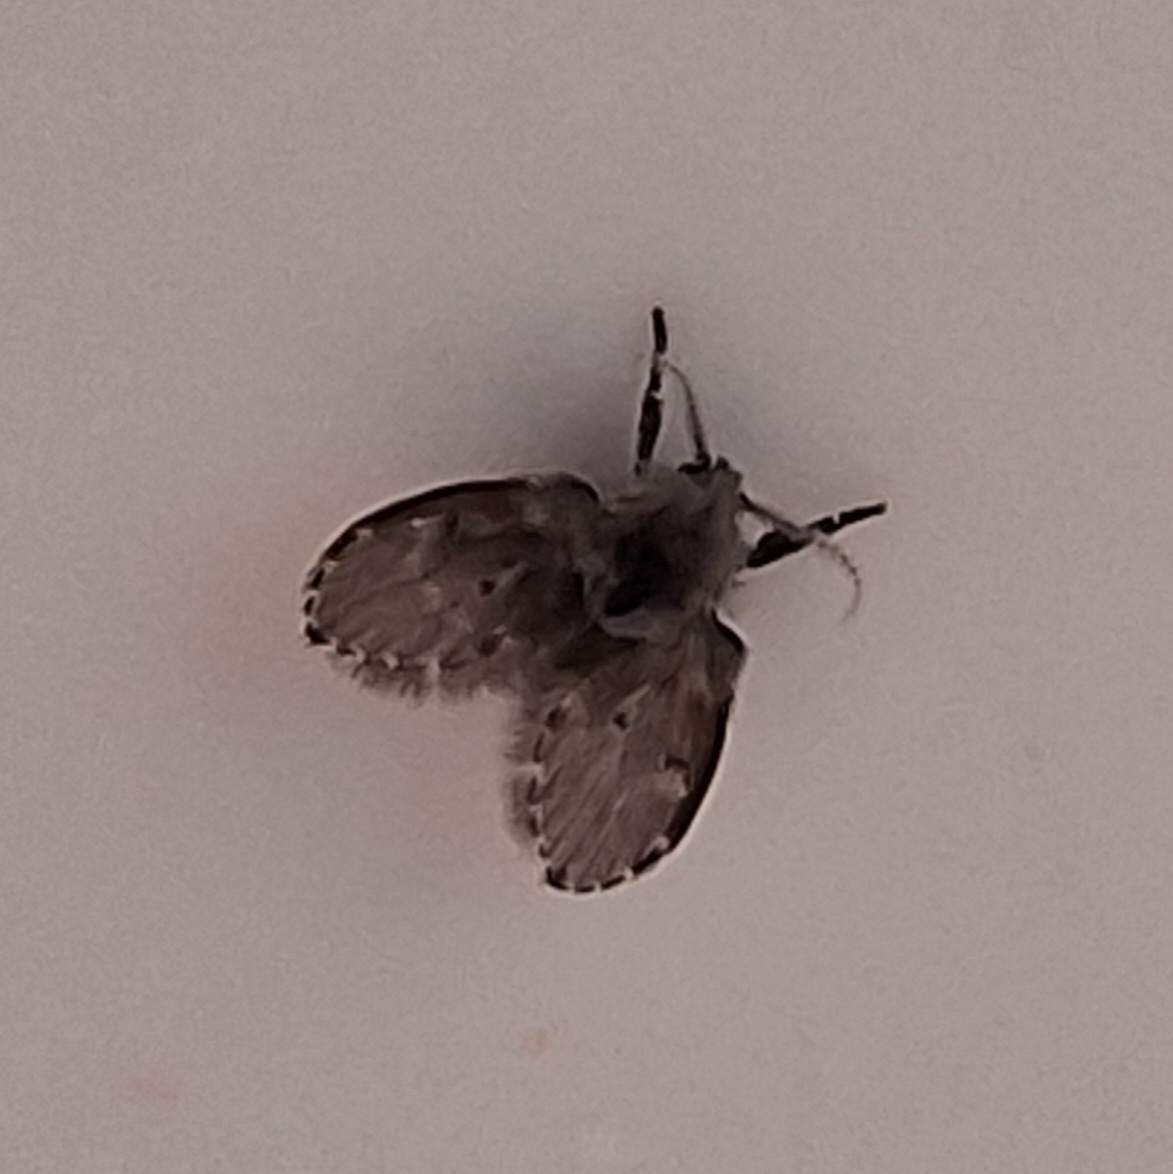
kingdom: Animalia
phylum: Arthropoda
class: Insecta
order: Diptera
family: Psychodidae
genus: Clogmia
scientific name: Clogmia albipunctatus
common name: White-spotted moth fly
